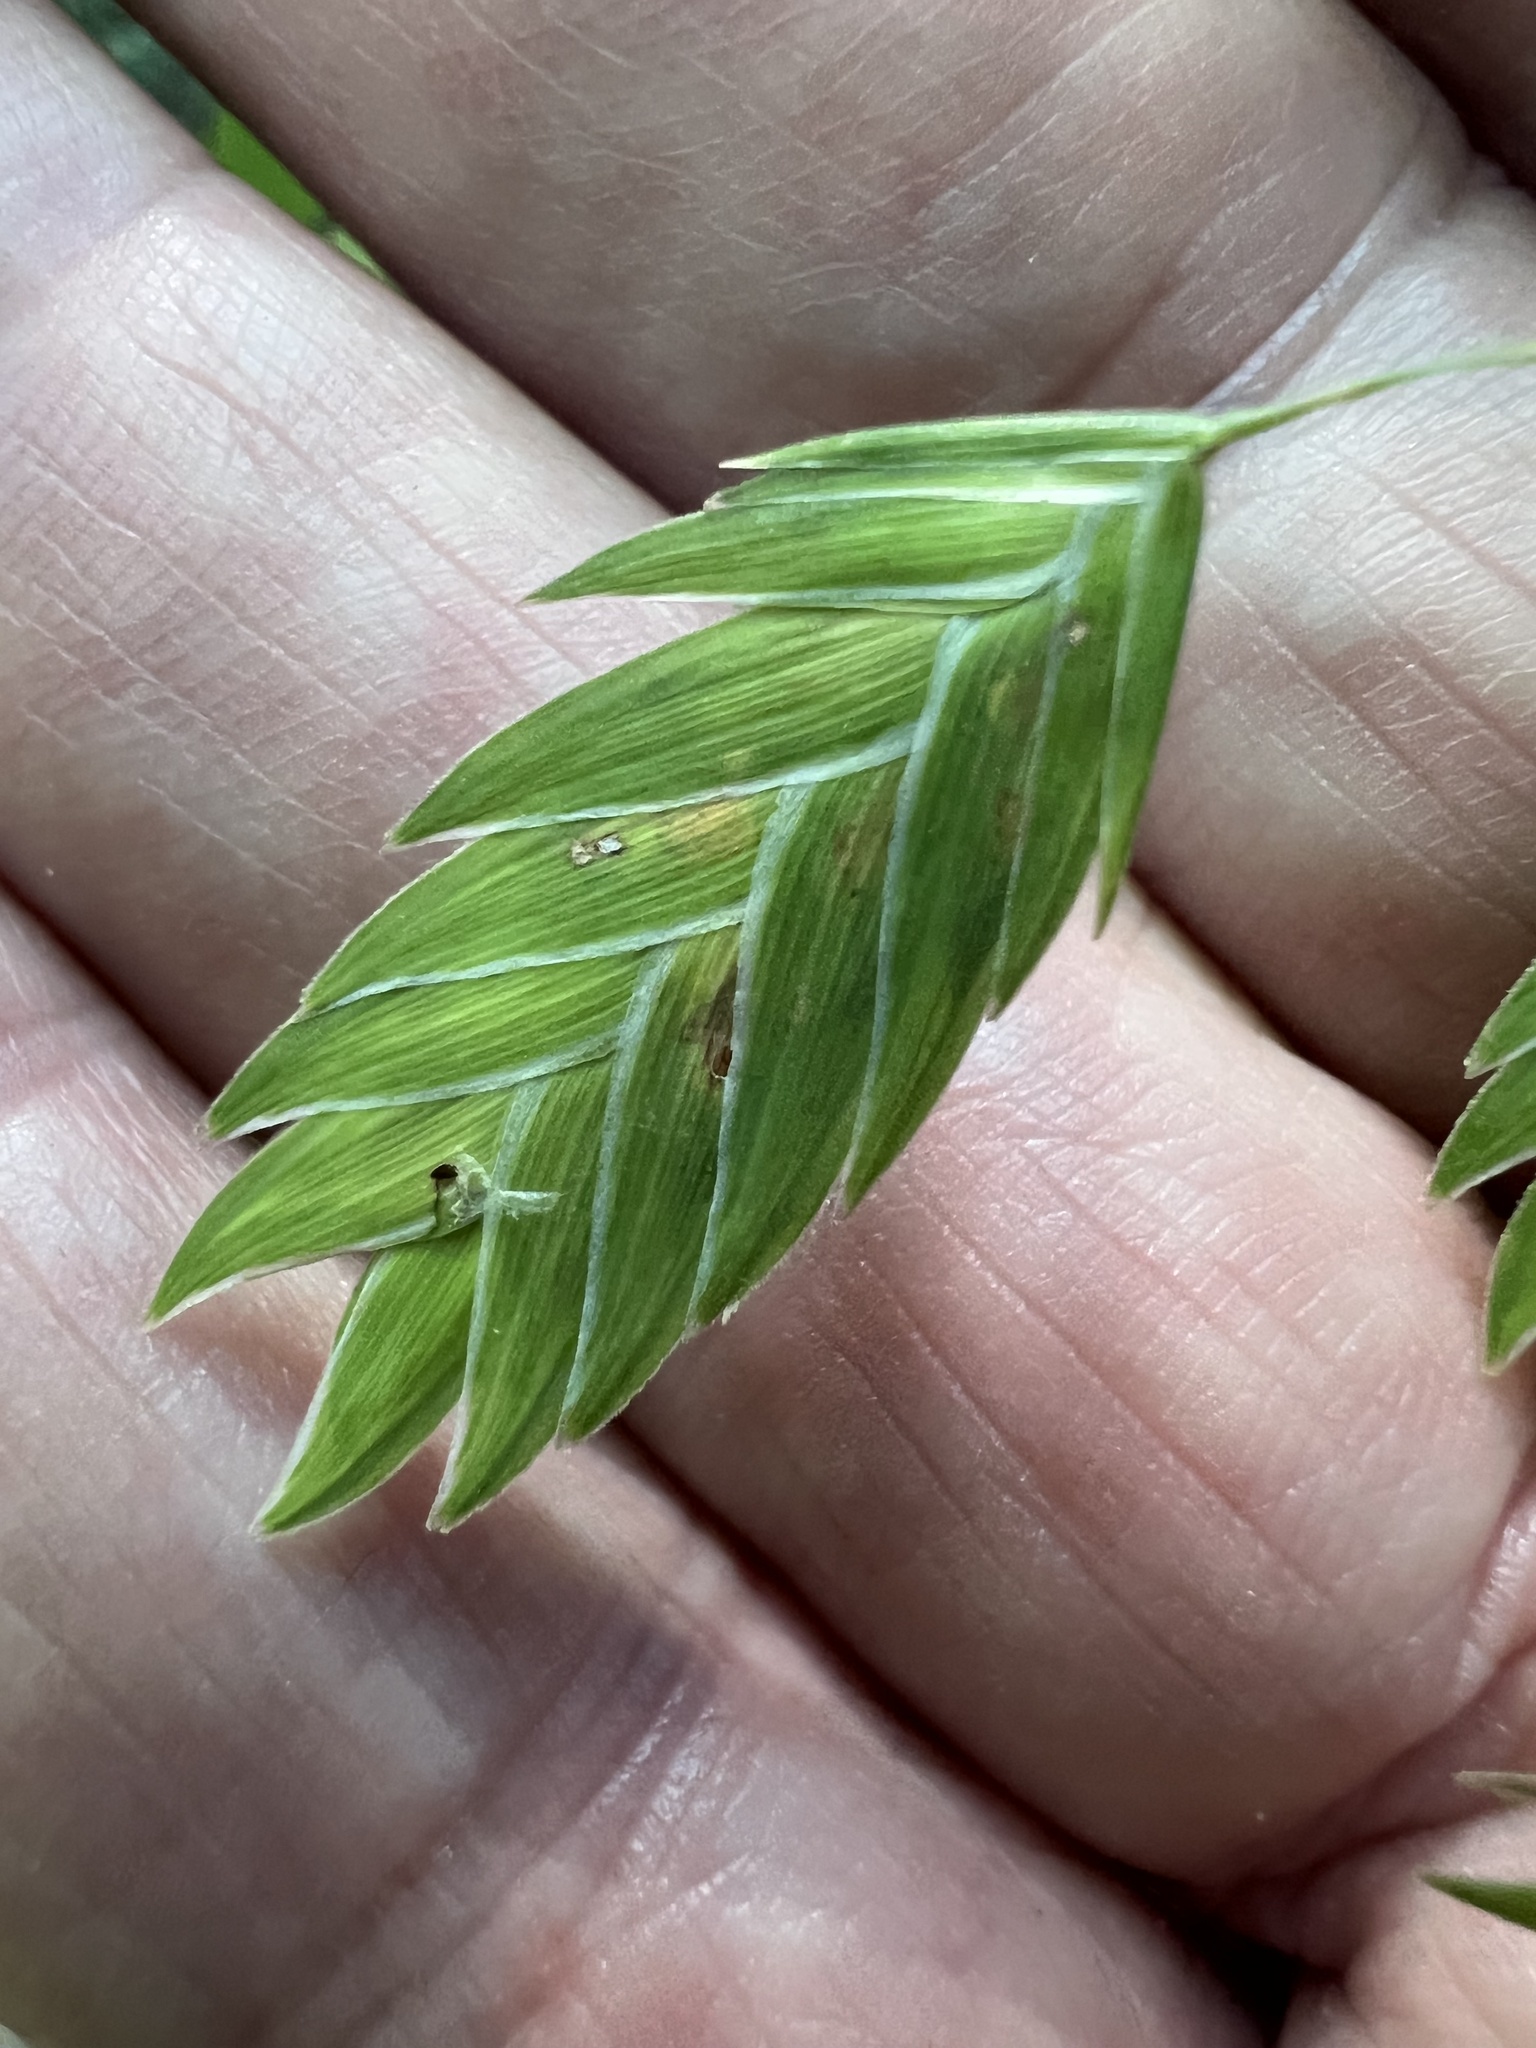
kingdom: Plantae
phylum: Tracheophyta
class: Liliopsida
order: Poales
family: Poaceae
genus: Chasmanthium
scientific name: Chasmanthium latifolium
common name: Broad-leaved chasmanthium
